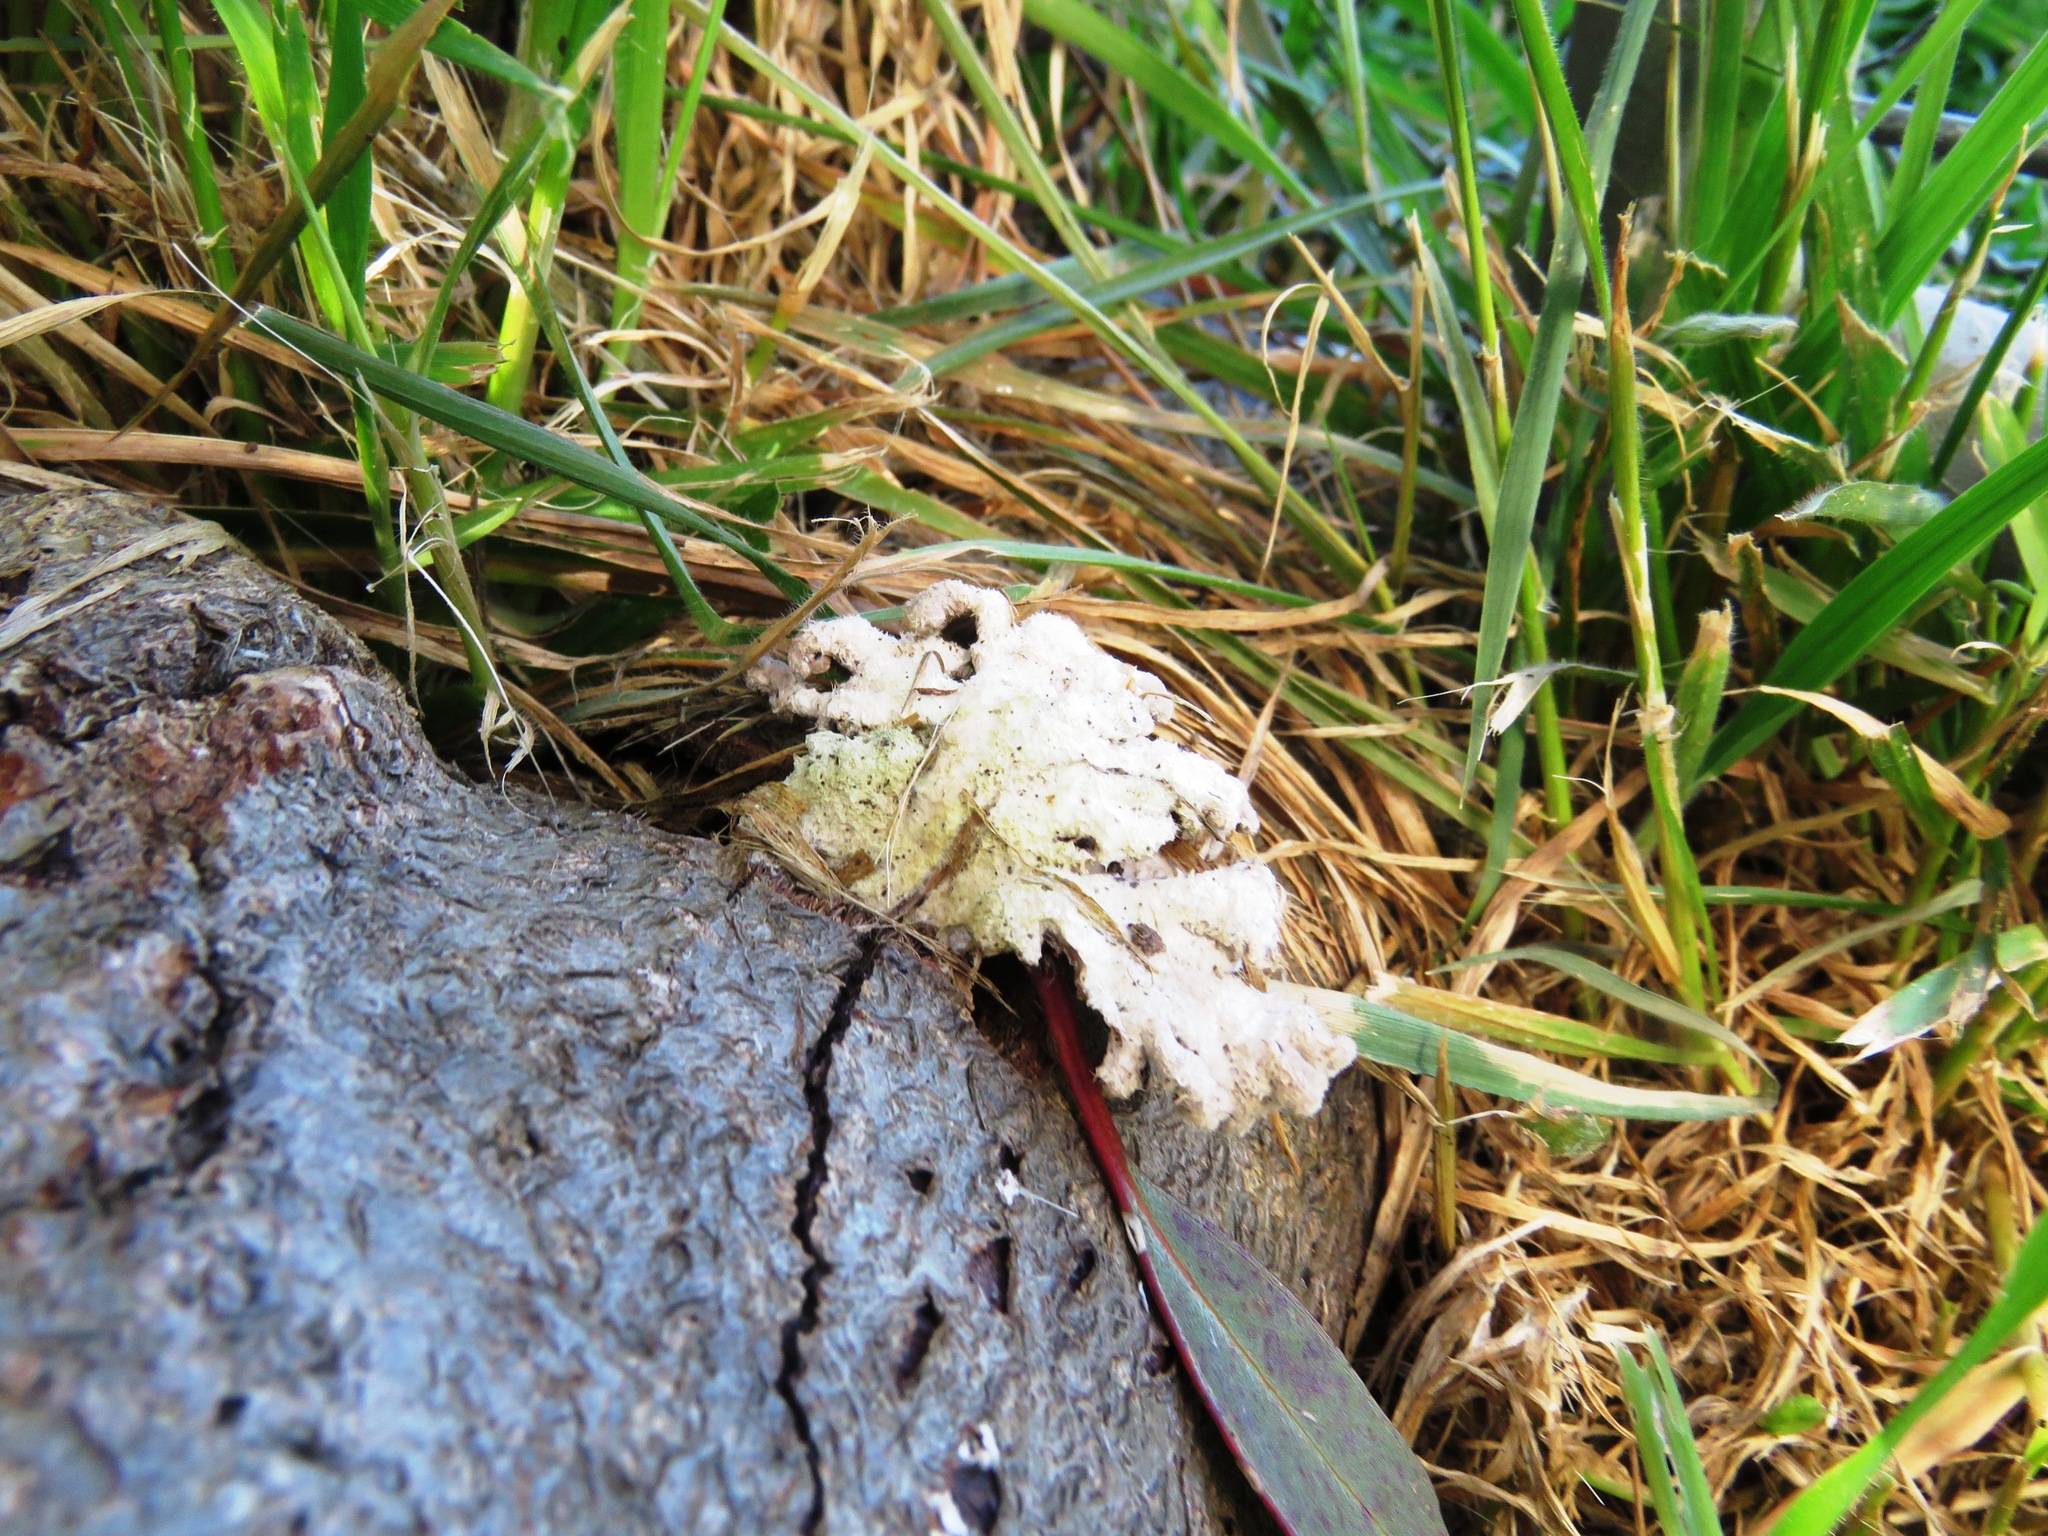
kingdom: Fungi
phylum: Basidiomycota
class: Agaricomycetes
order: Agaricales
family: Schizophyllaceae
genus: Schizophyllum
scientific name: Schizophyllum commune
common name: Common porecrust
